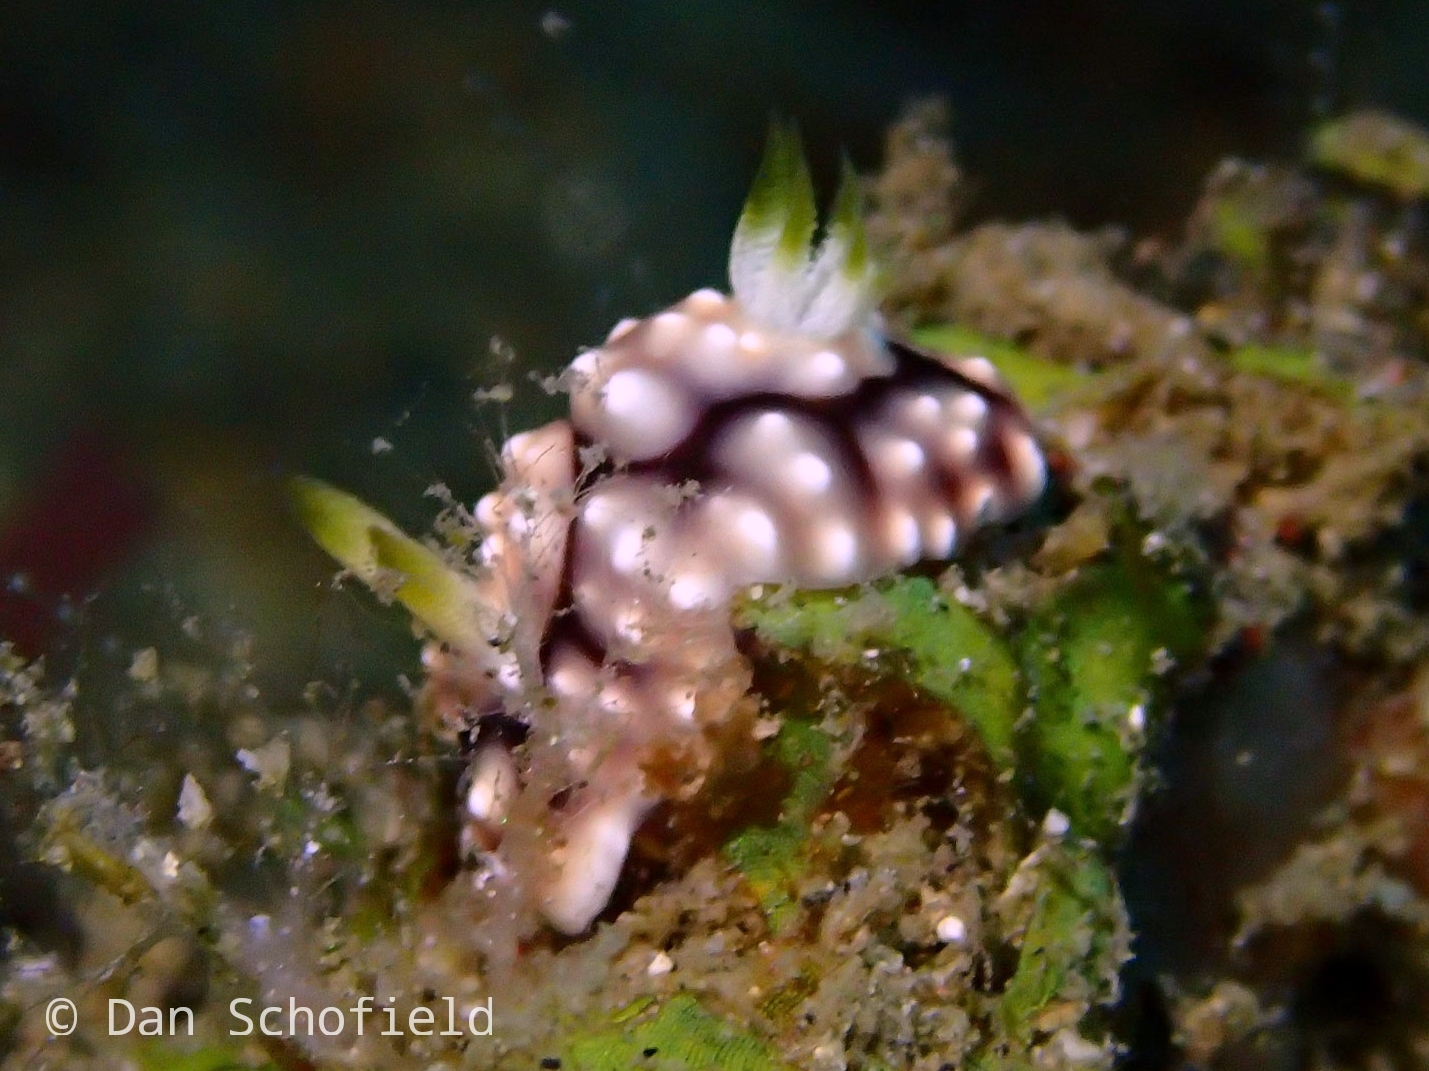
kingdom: Animalia
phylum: Mollusca
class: Gastropoda
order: Nudibranchia
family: Chromodorididae
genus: Goniobranchus
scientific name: Goniobranchus geometricus
